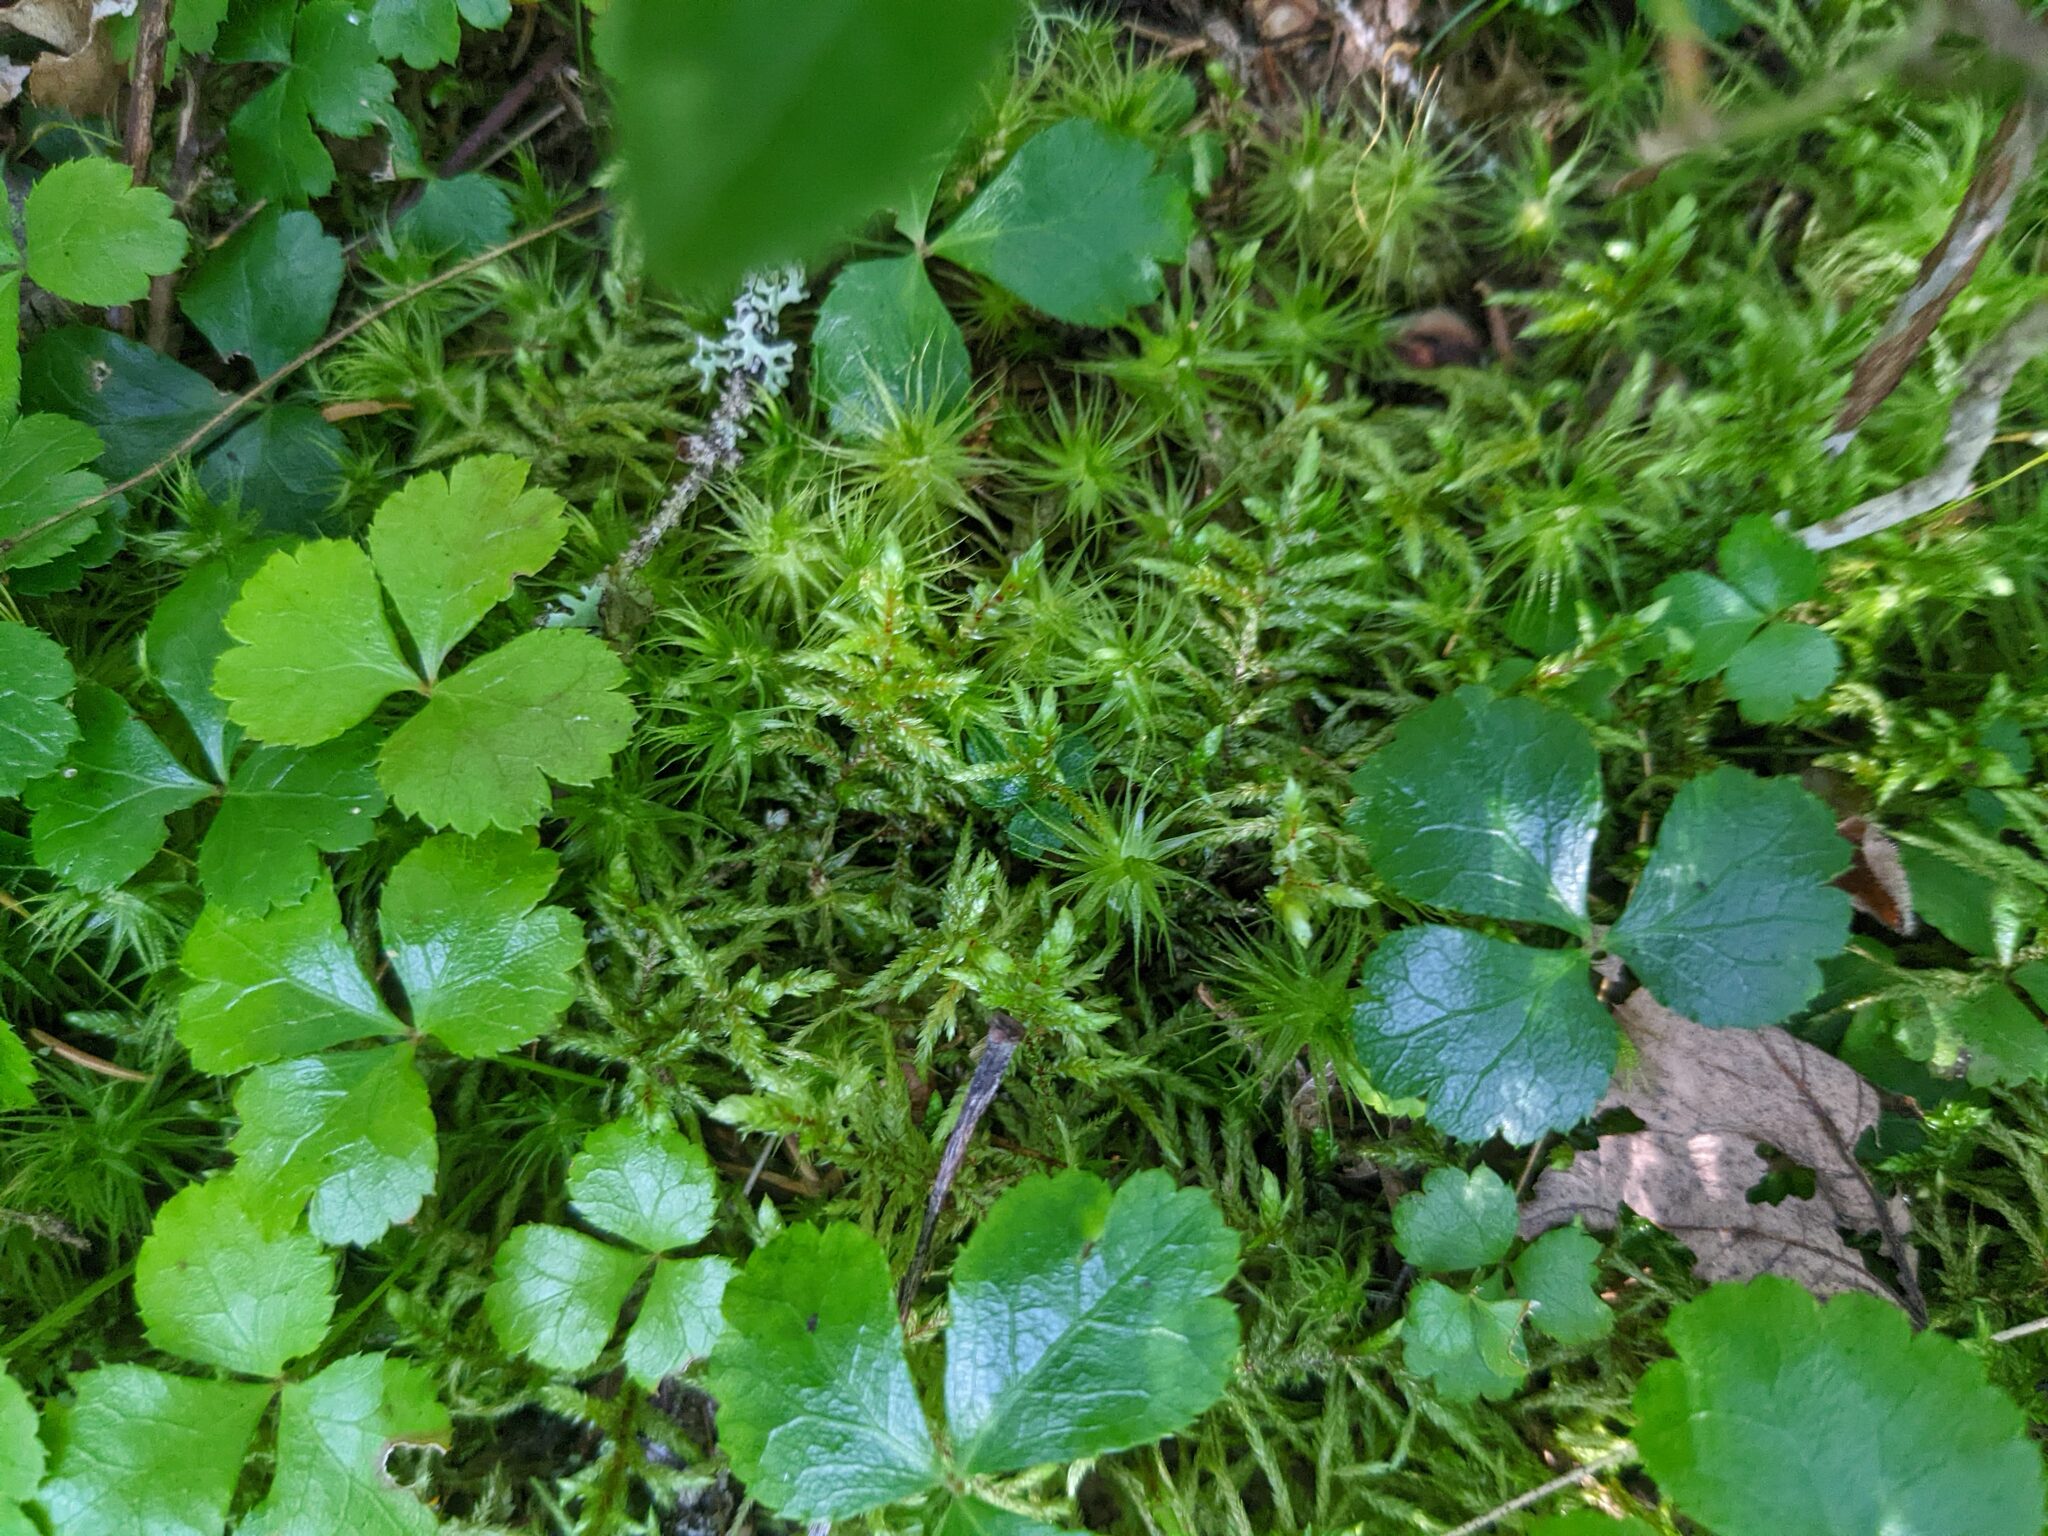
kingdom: Plantae
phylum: Tracheophyta
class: Magnoliopsida
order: Ranunculales
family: Ranunculaceae
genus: Coptis
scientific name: Coptis trifolia
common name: Canker-root
